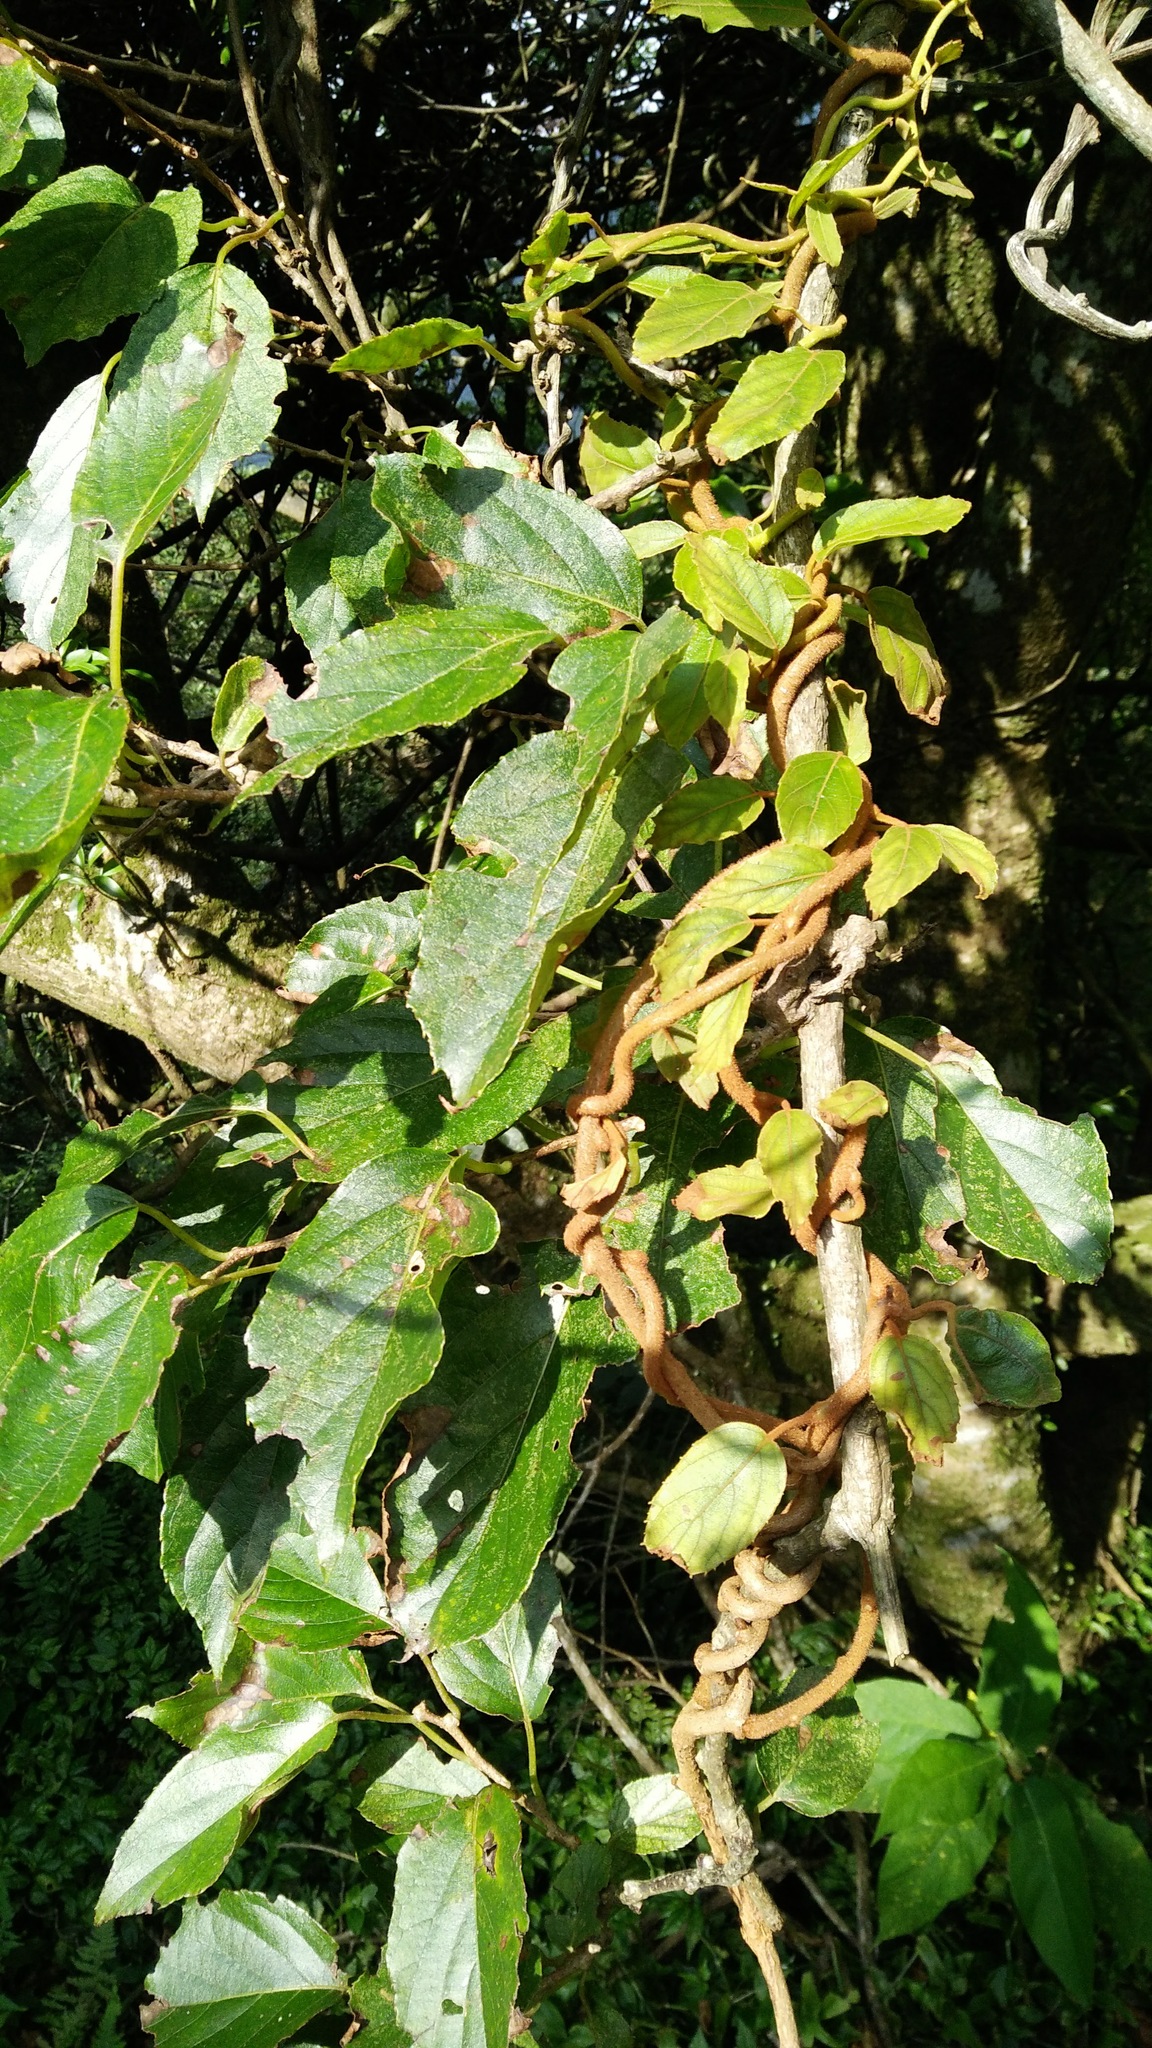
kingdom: Plantae
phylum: Tracheophyta
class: Magnoliopsida
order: Ericales
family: Actinidiaceae
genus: Actinidia
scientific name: Actinidia rufa
